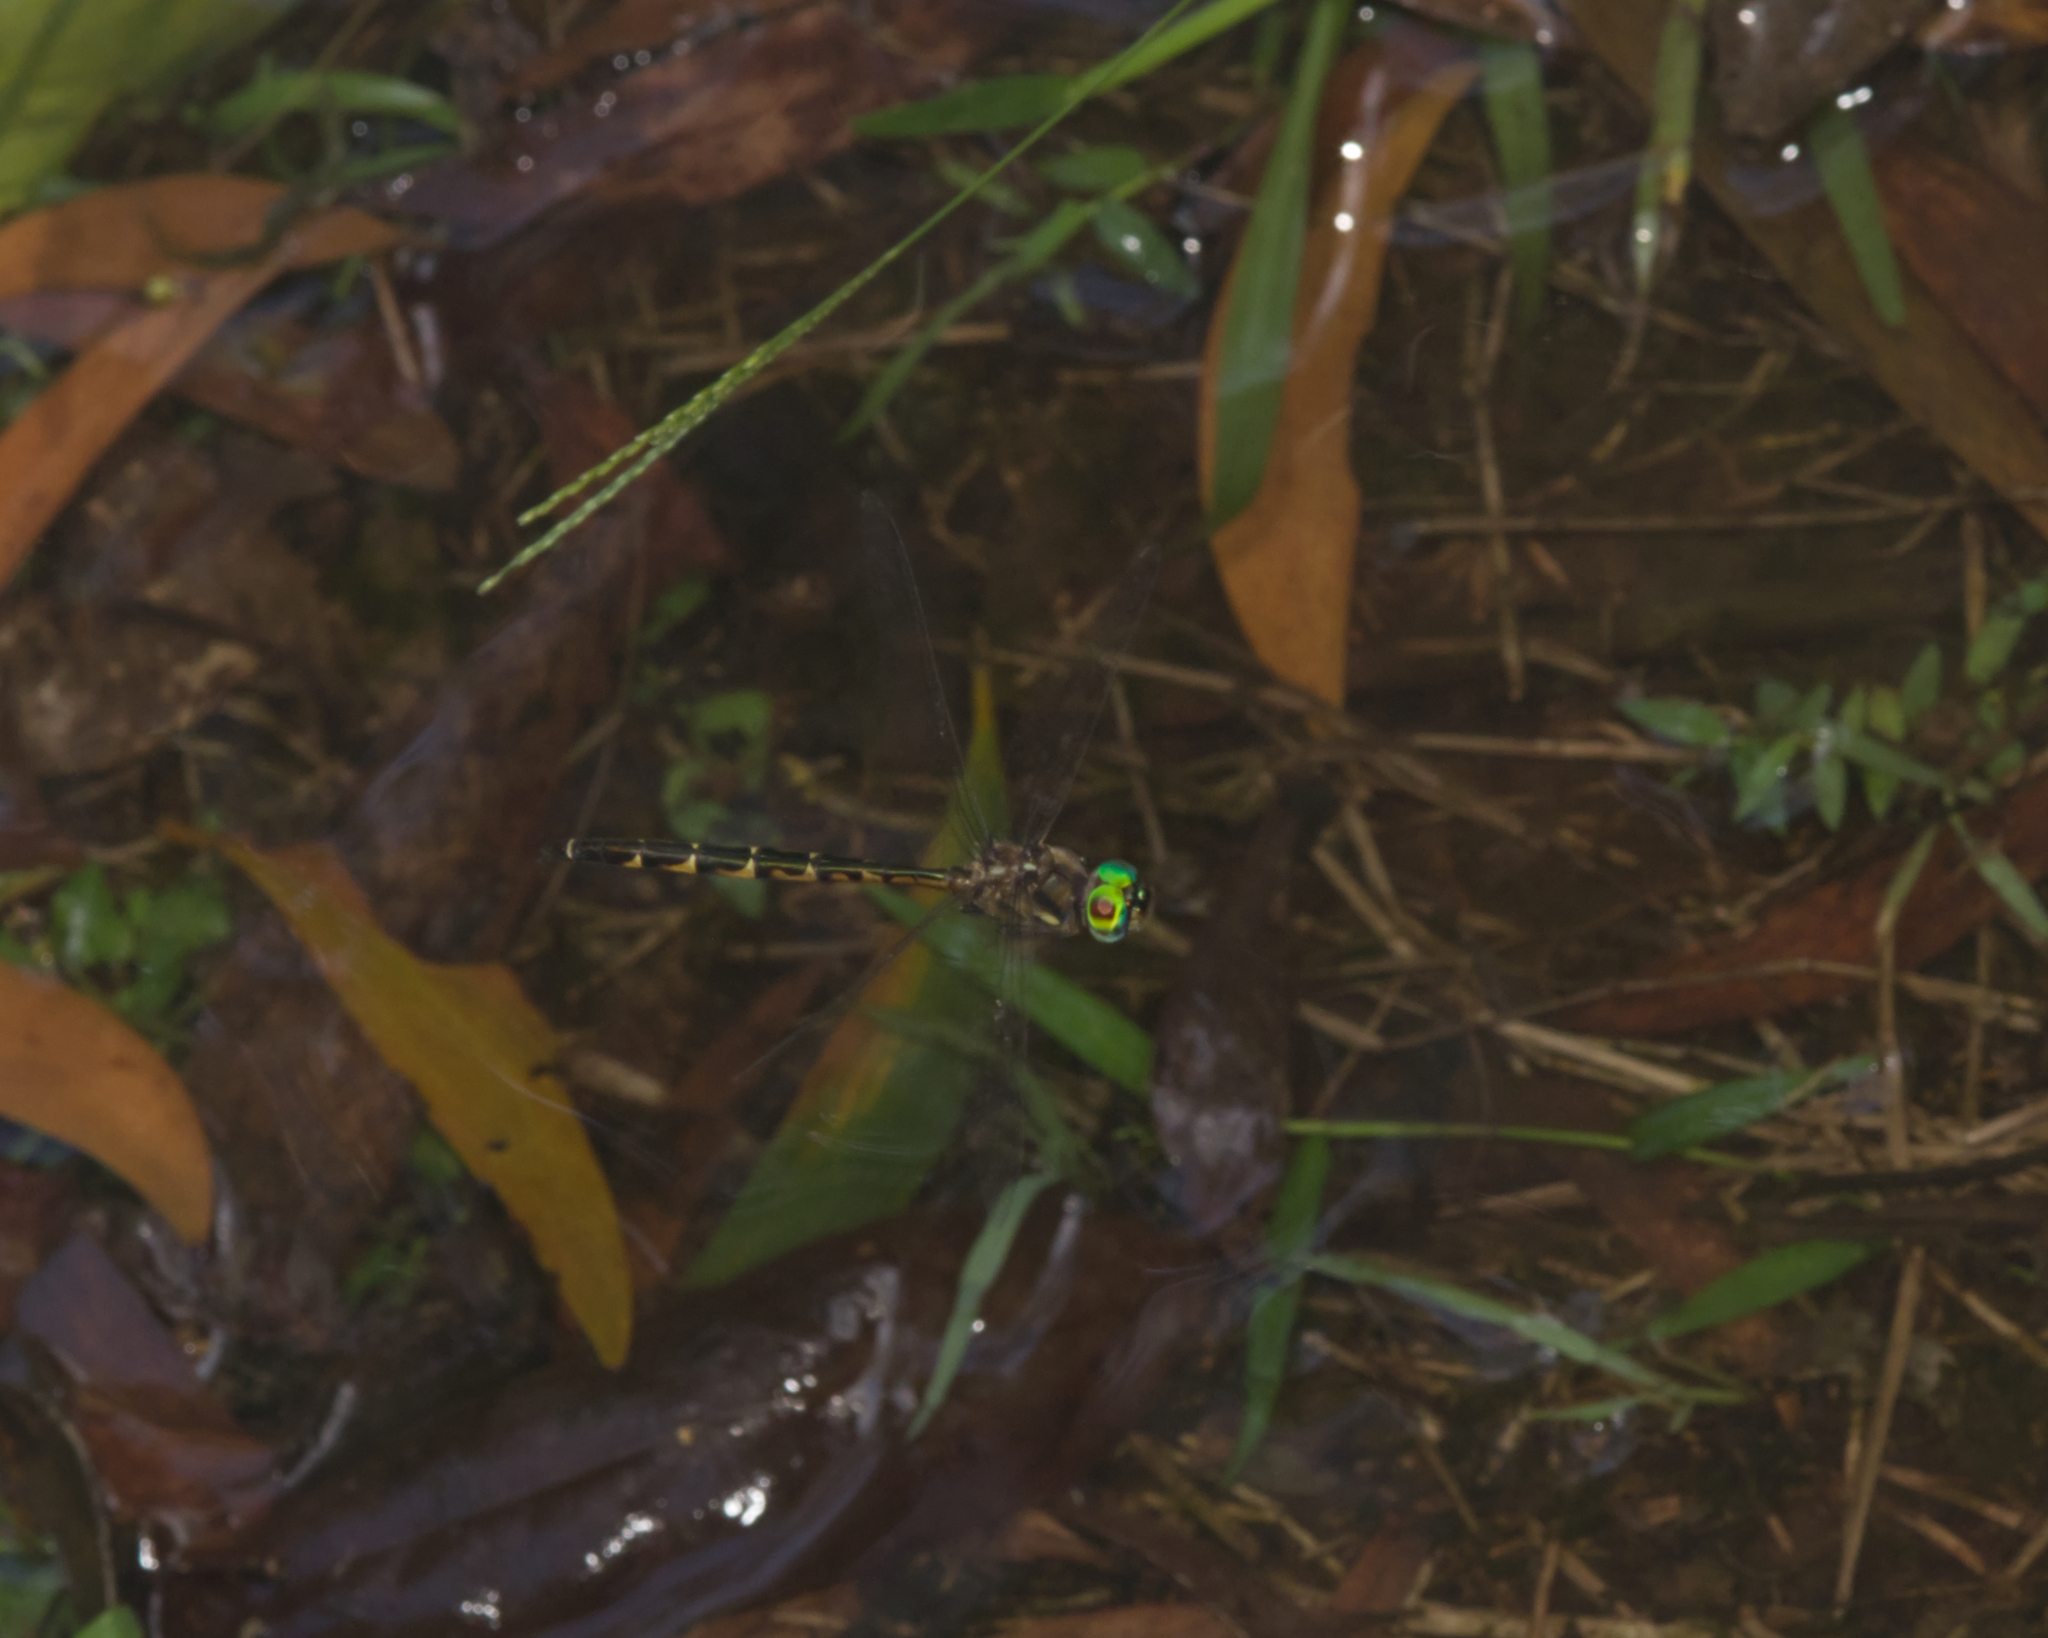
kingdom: Animalia
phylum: Arthropoda
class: Insecta
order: Odonata
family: Corduliidae
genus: Hemicordulia
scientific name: Hemicordulia australiae
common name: Sentry dragonfly
